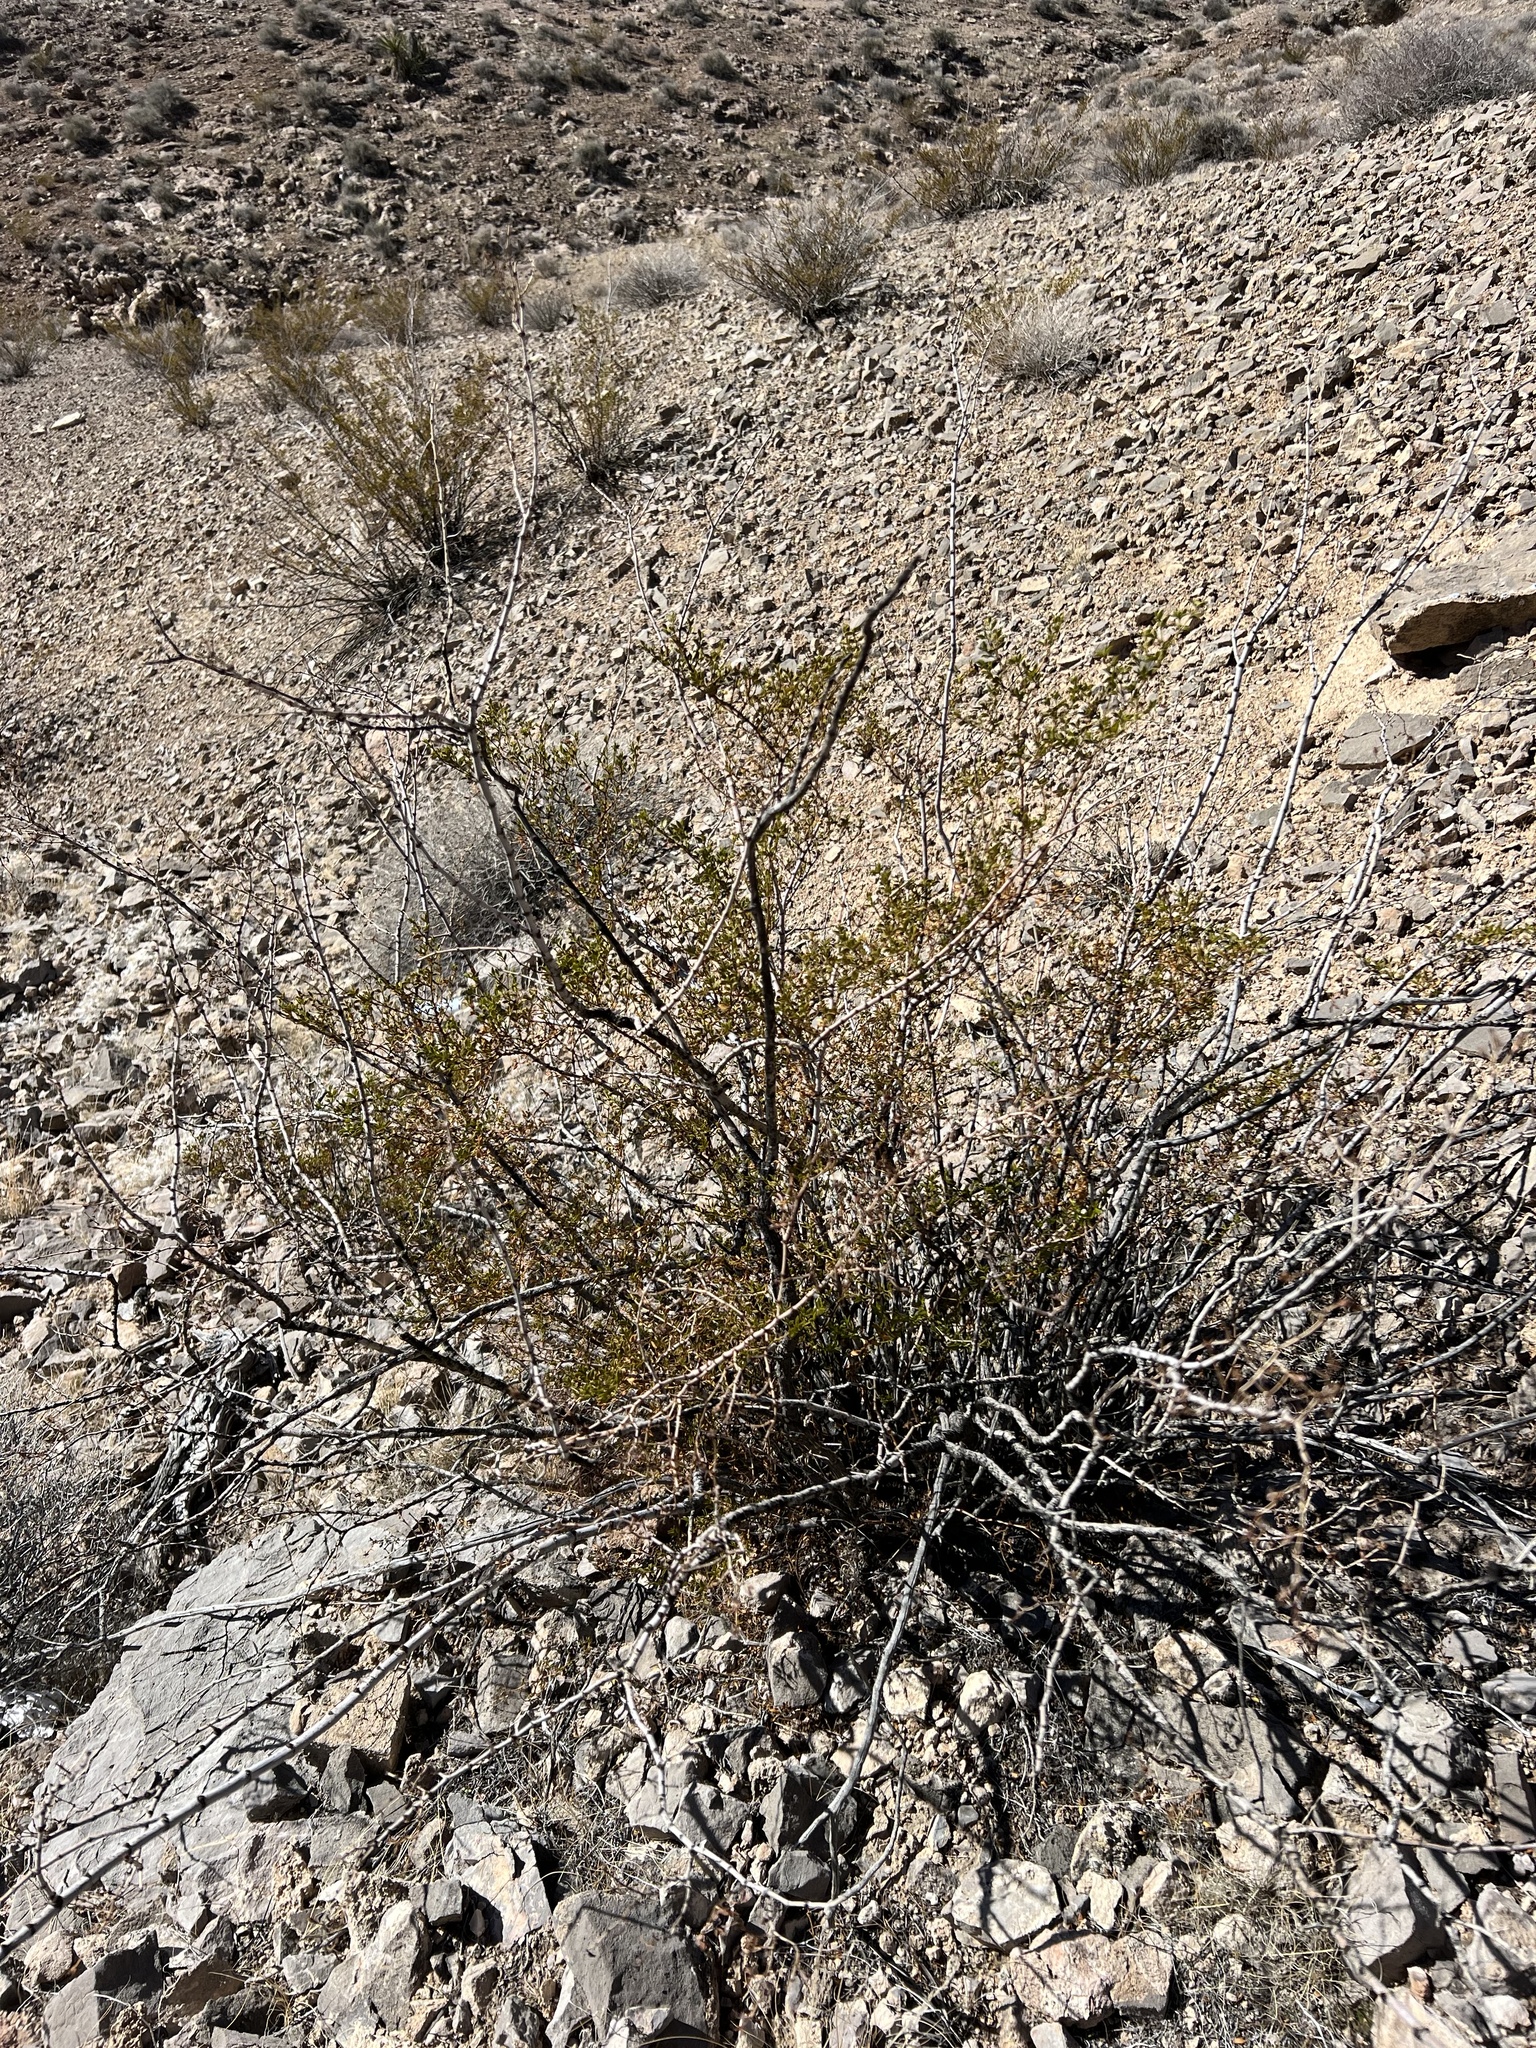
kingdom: Plantae
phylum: Tracheophyta
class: Magnoliopsida
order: Zygophyllales
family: Zygophyllaceae
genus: Larrea
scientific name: Larrea tridentata
